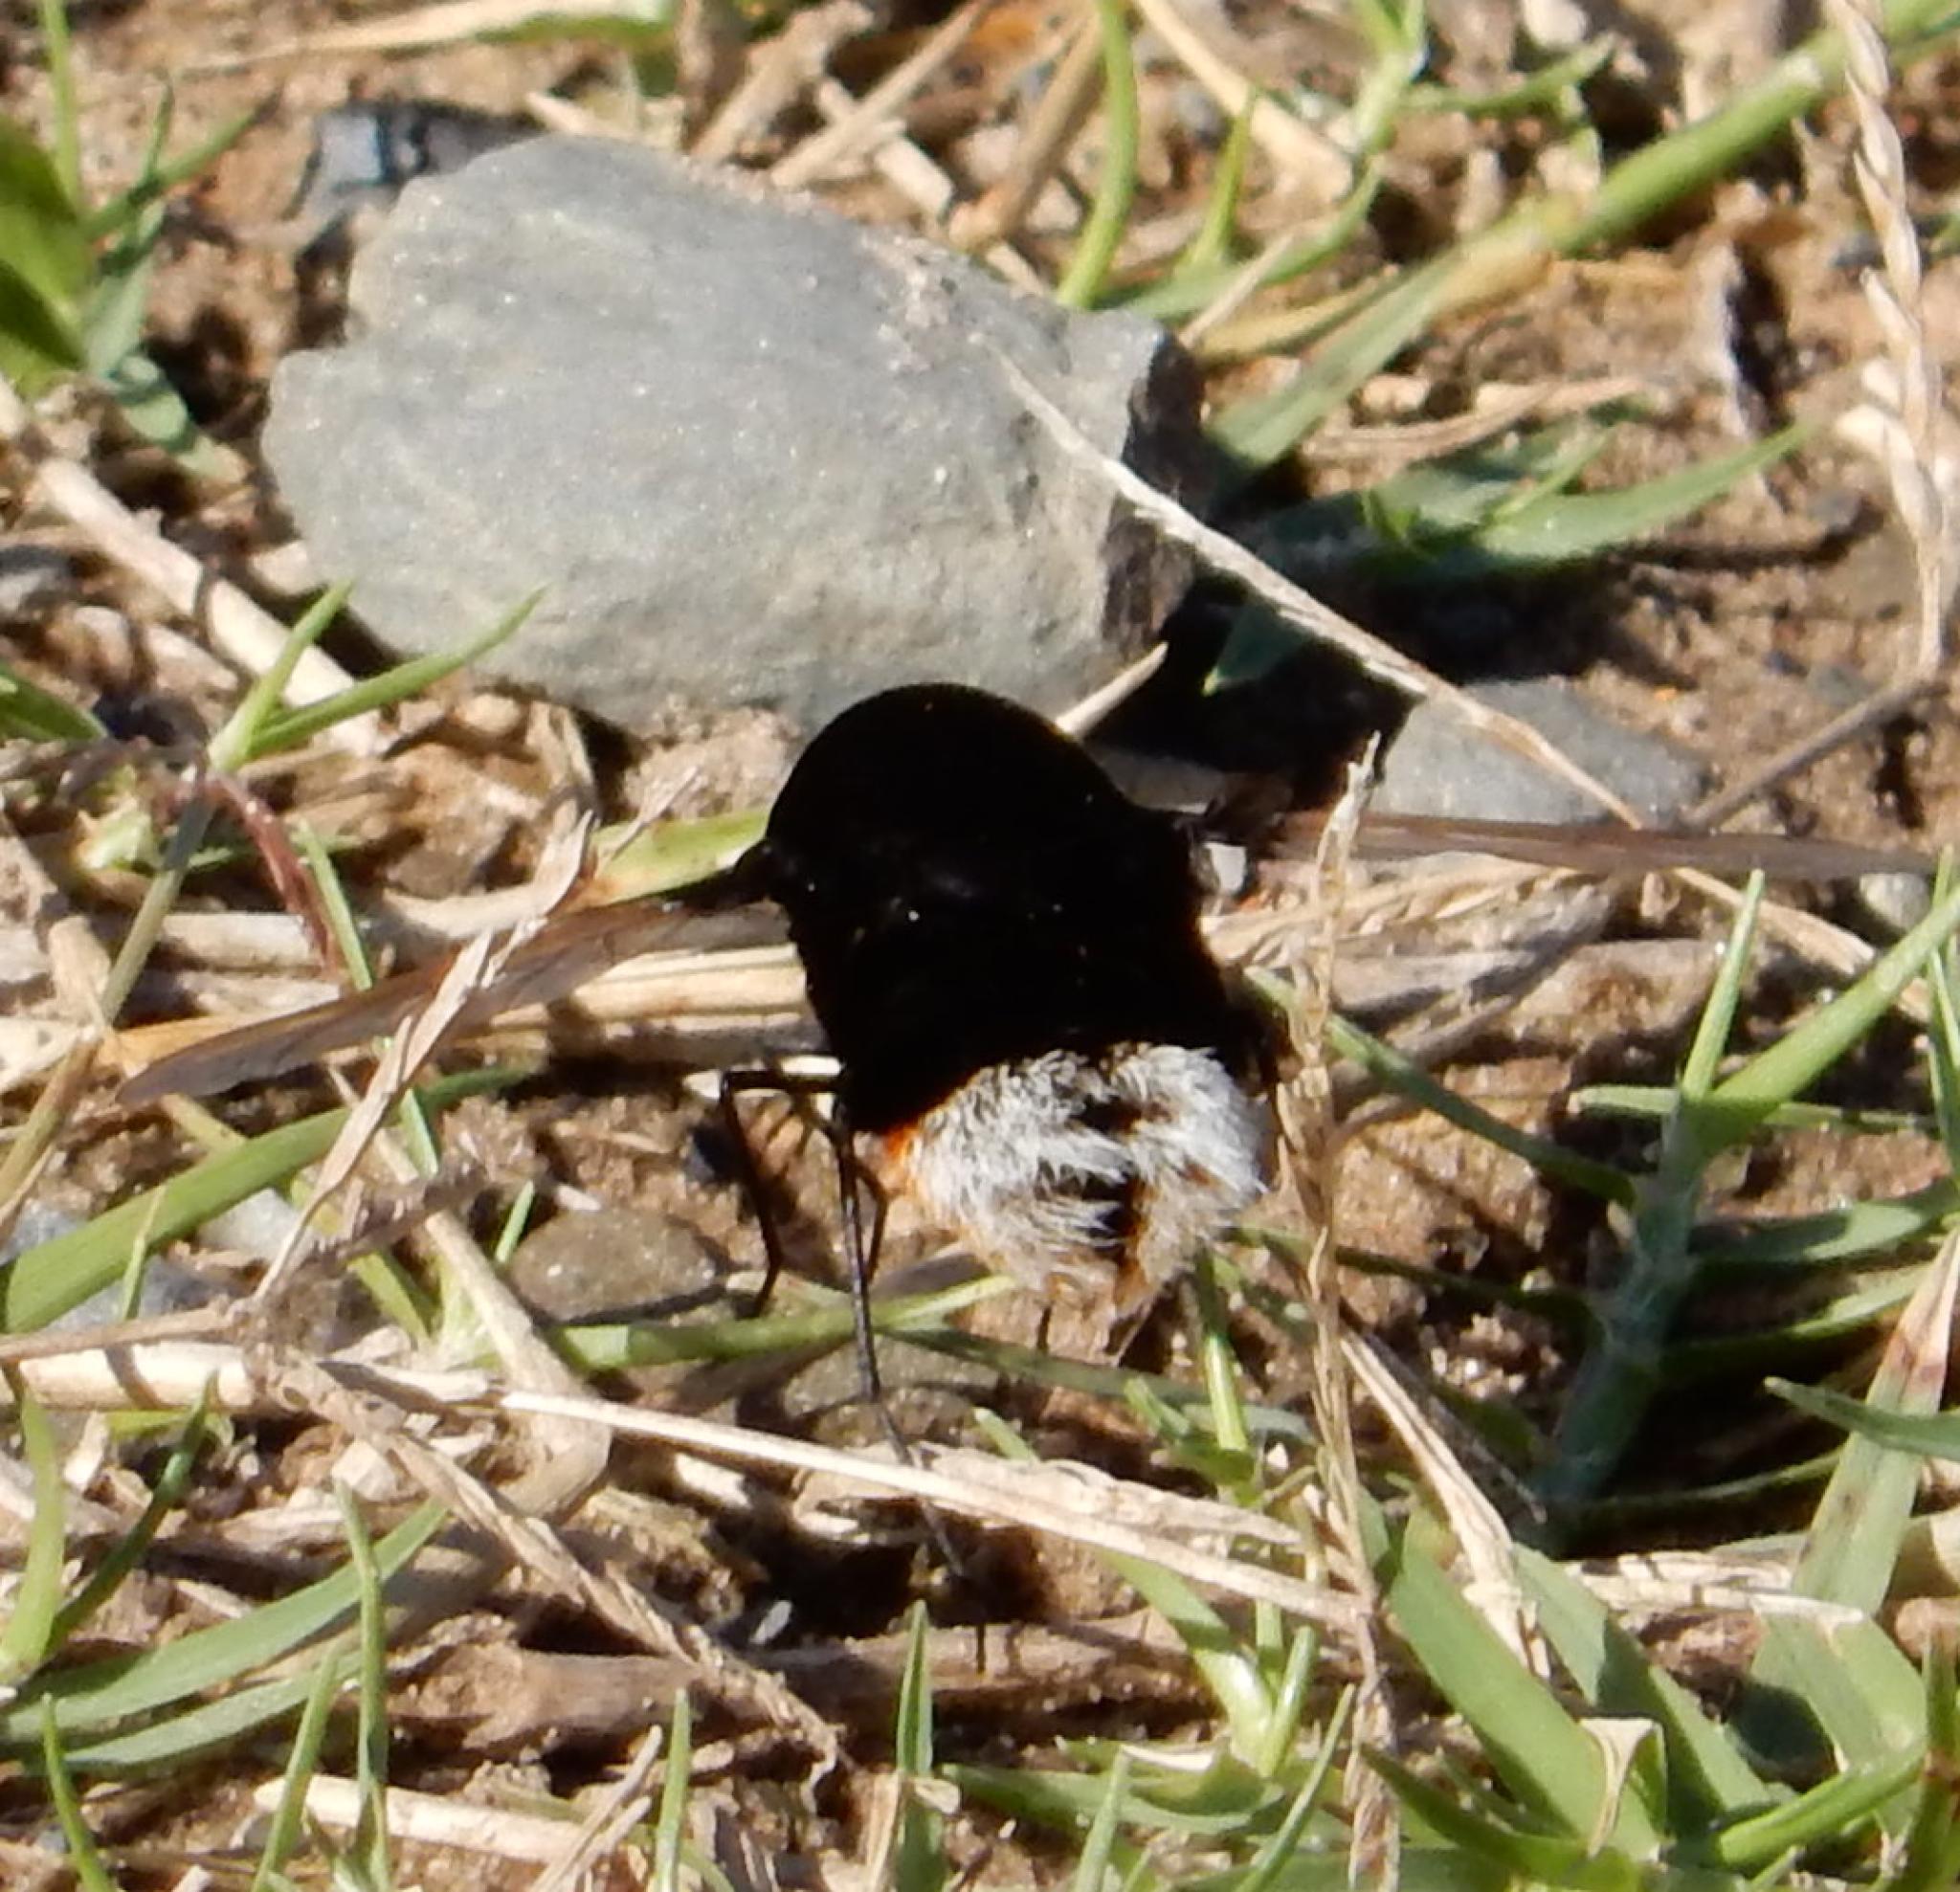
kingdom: Animalia
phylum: Arthropoda
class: Insecta
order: Diptera
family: Bombyliidae
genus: Bombomyia
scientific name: Bombomyia discoidea
